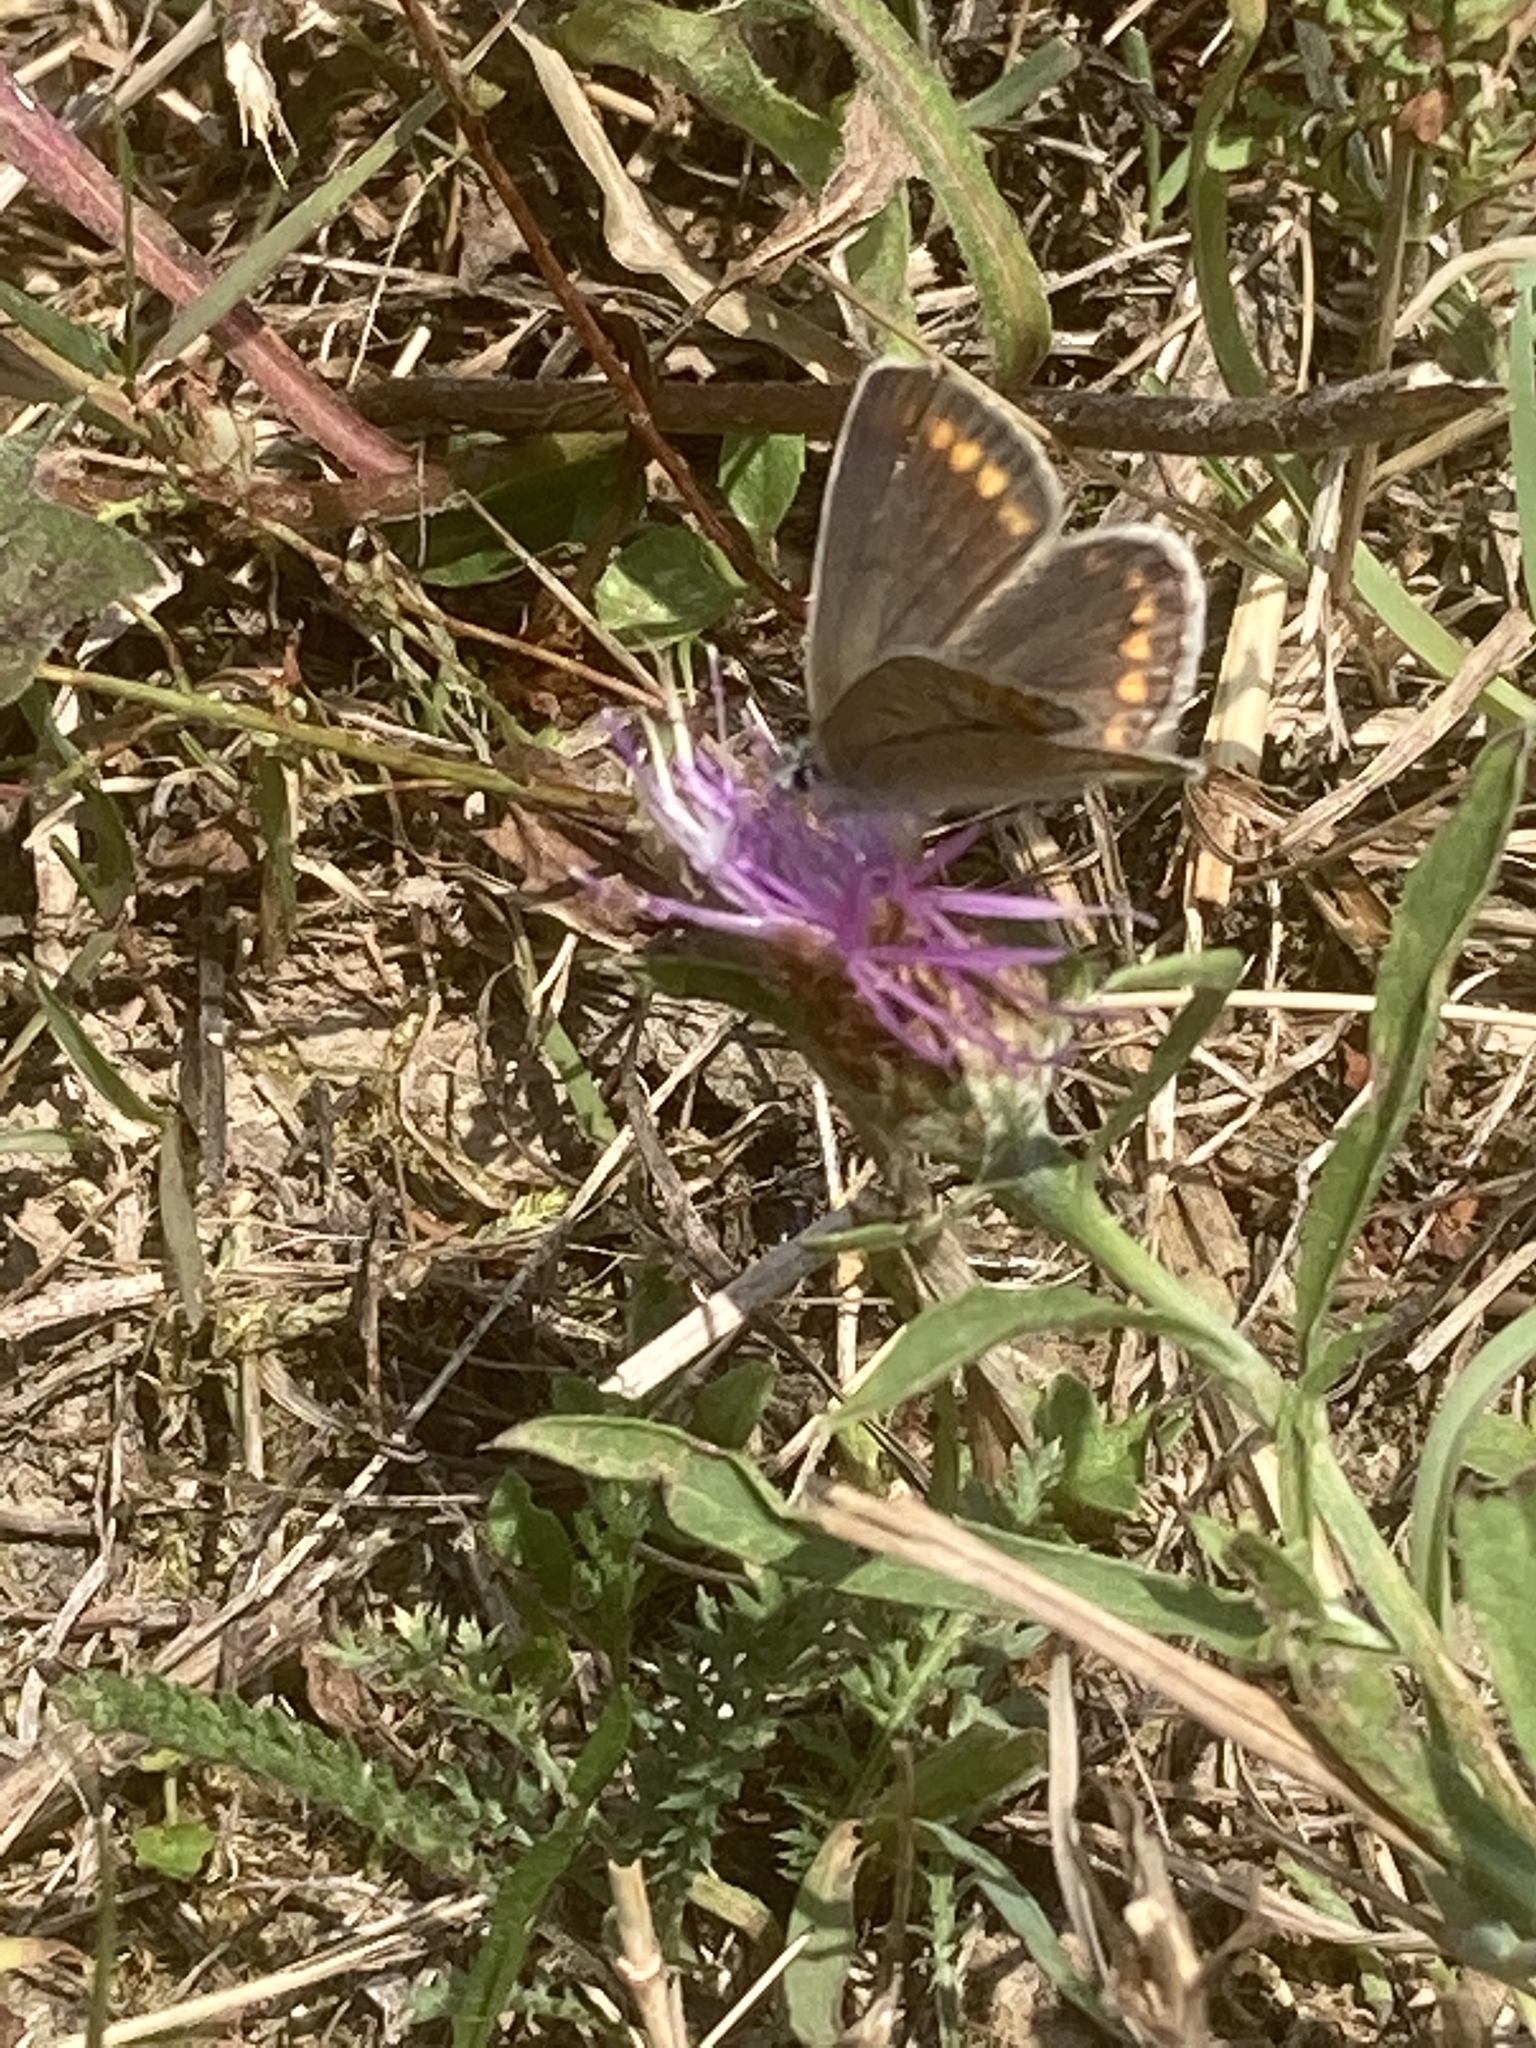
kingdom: Animalia
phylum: Arthropoda
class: Insecta
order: Lepidoptera
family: Lycaenidae
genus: Polyommatus
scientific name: Polyommatus icarus
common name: Common blue
